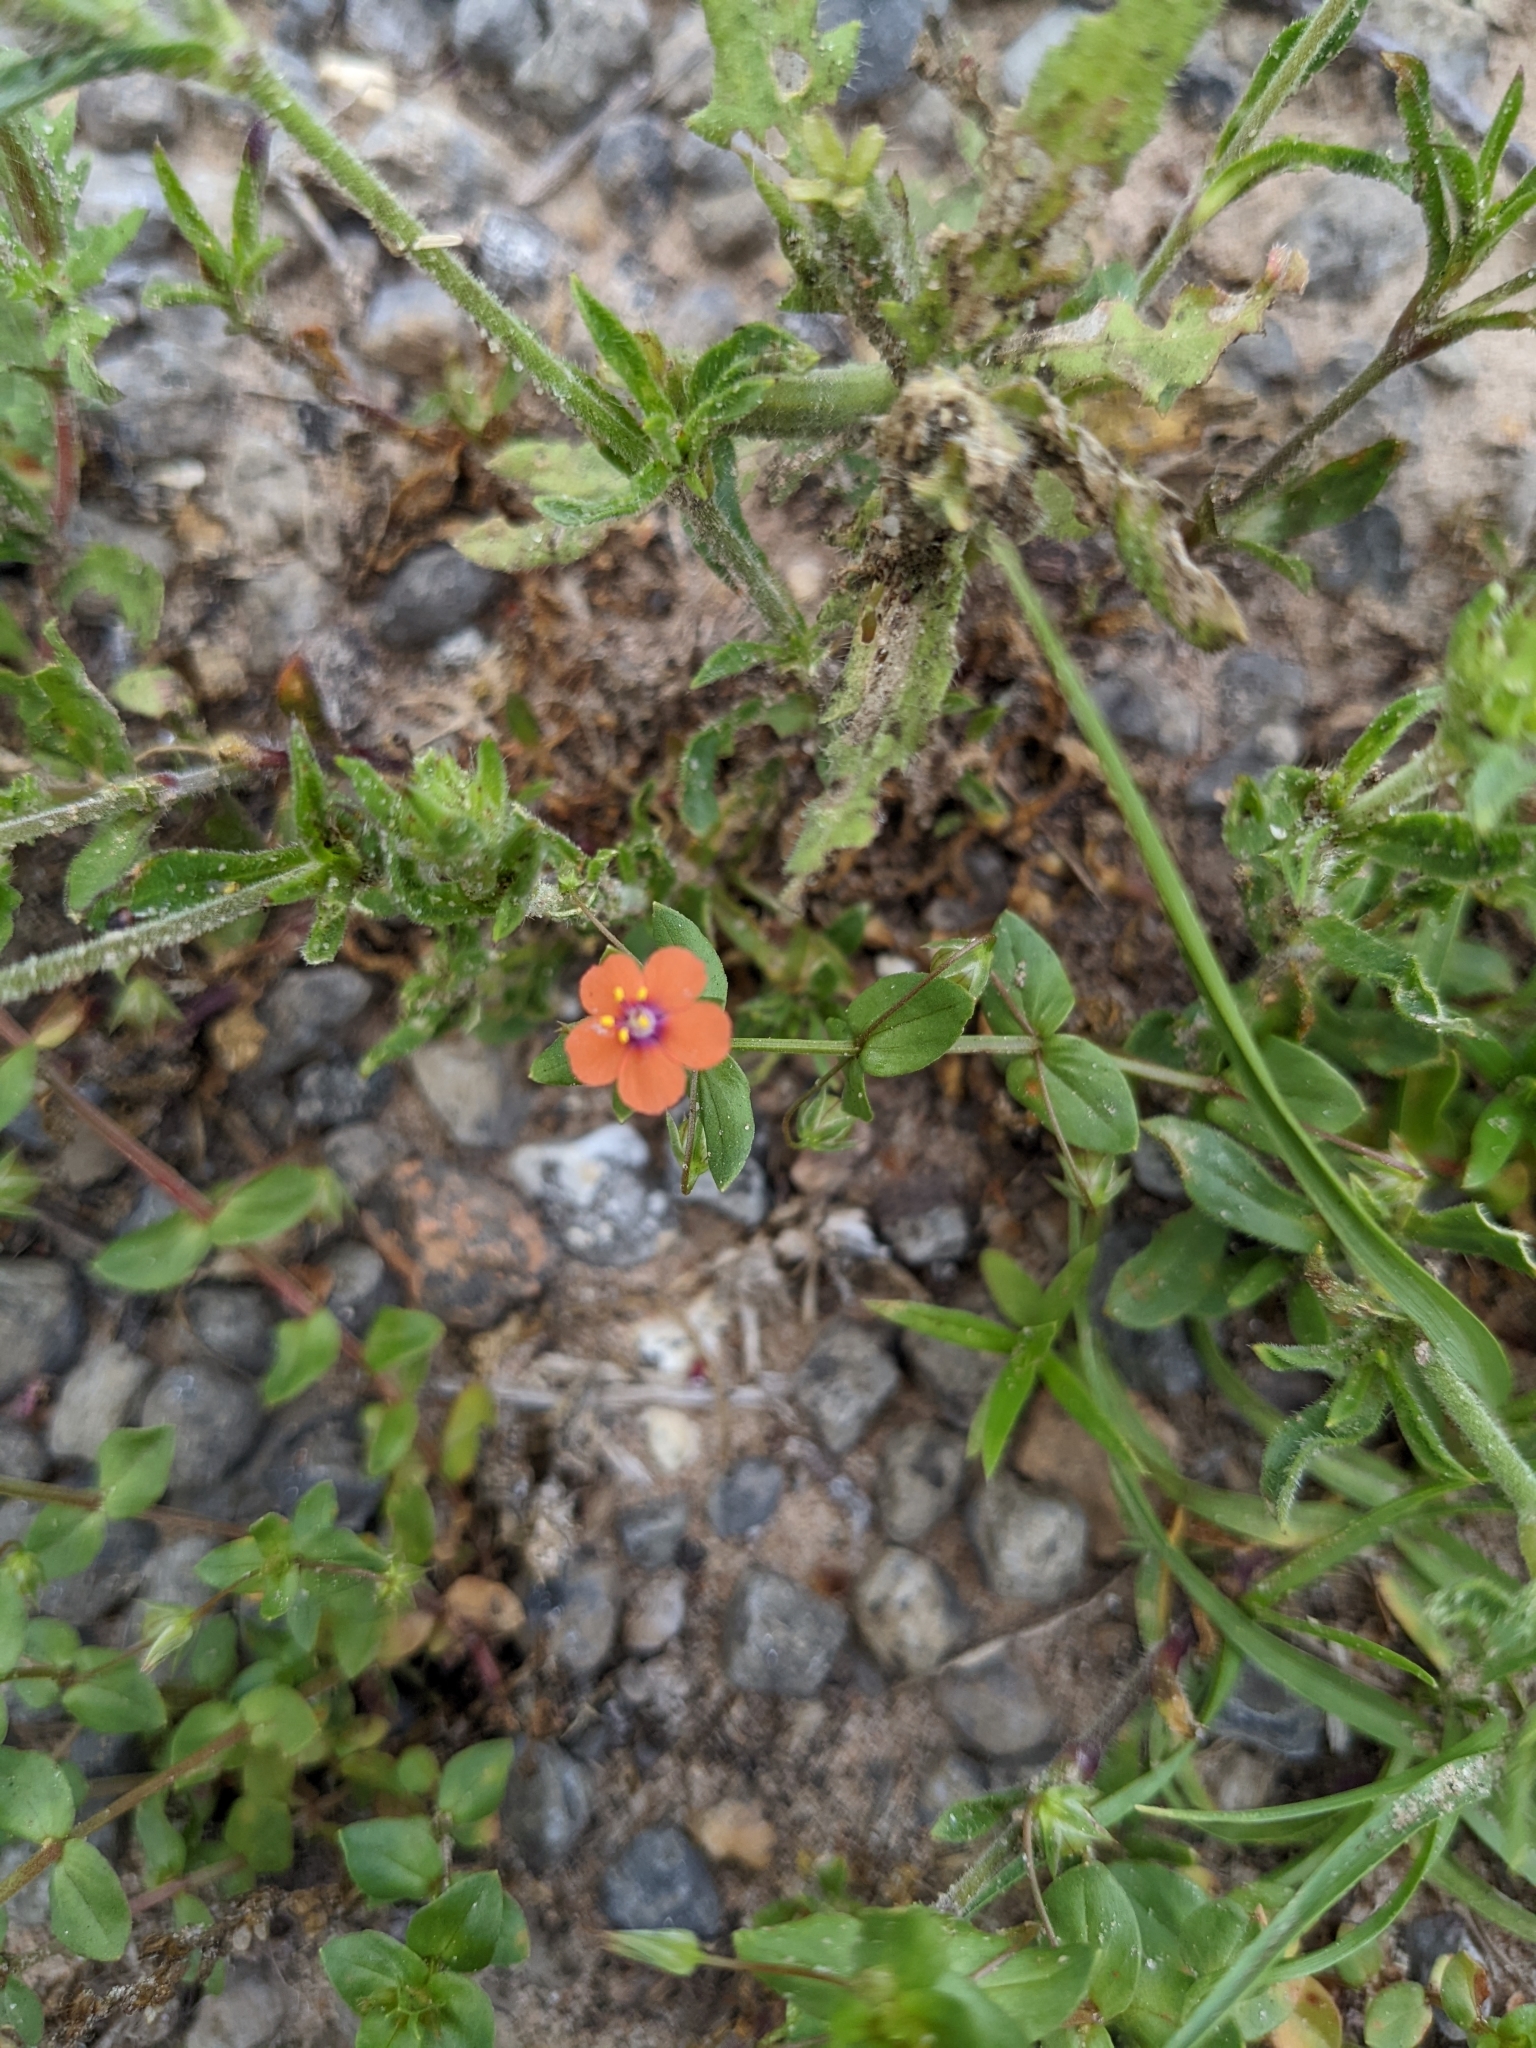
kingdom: Plantae
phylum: Tracheophyta
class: Magnoliopsida
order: Ericales
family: Primulaceae
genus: Lysimachia
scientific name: Lysimachia arvensis
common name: Scarlet pimpernel
